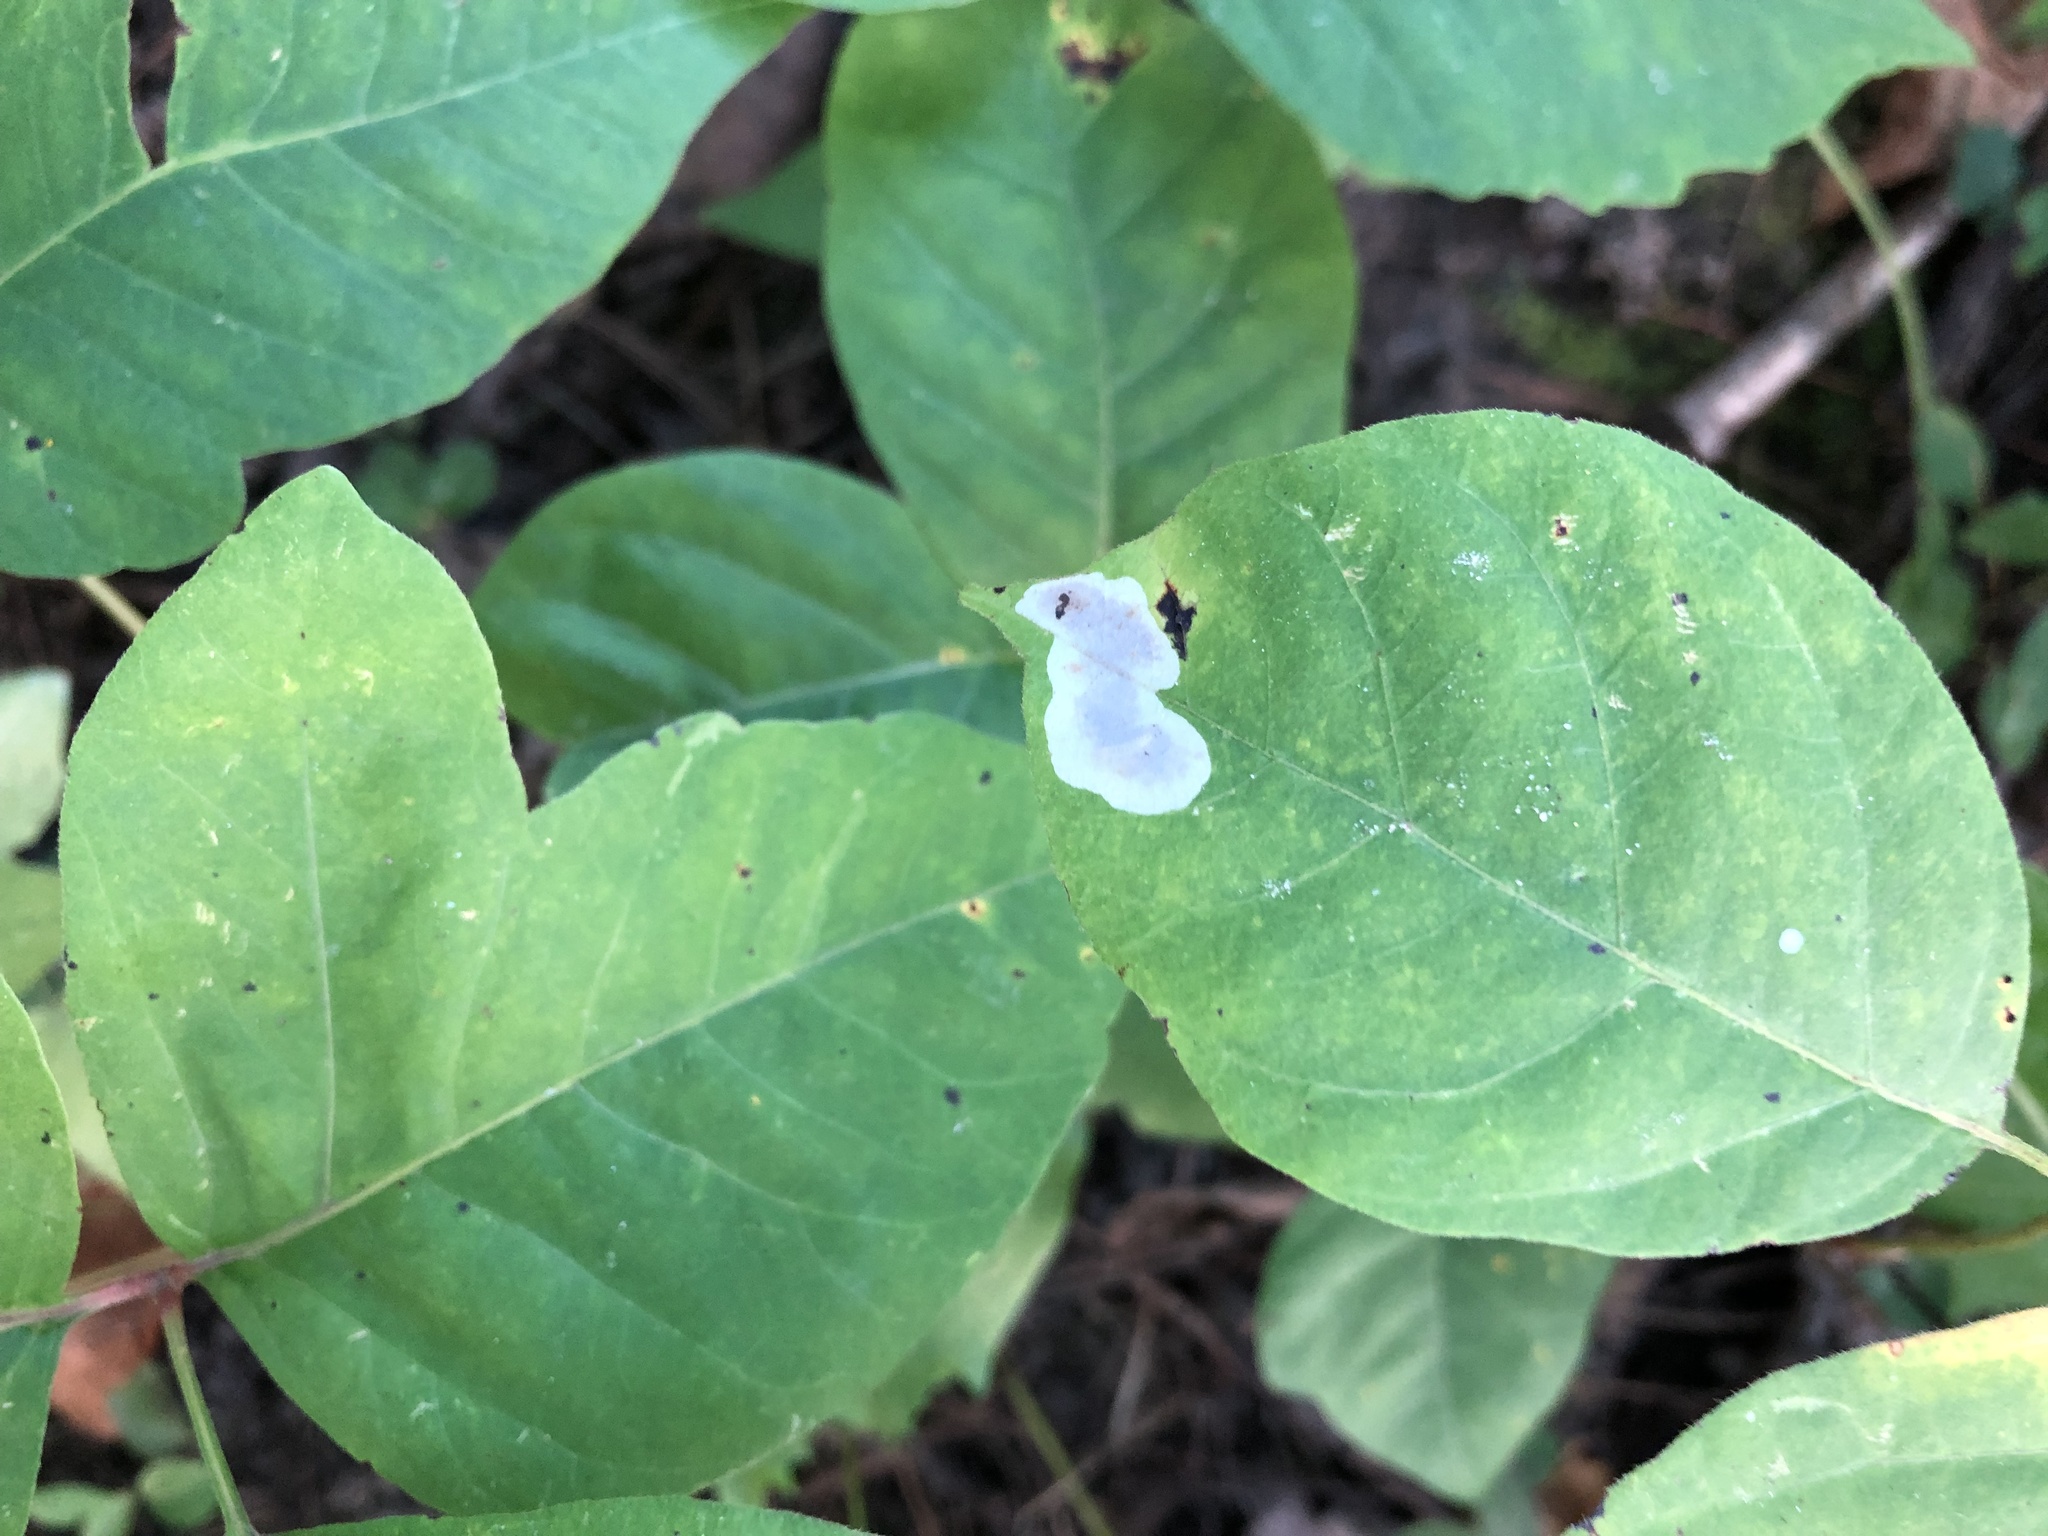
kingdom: Animalia
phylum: Arthropoda
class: Insecta
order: Lepidoptera
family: Gracillariidae
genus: Cameraria
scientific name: Cameraria guttifinitella
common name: Poison ivy leaf-miner moth
